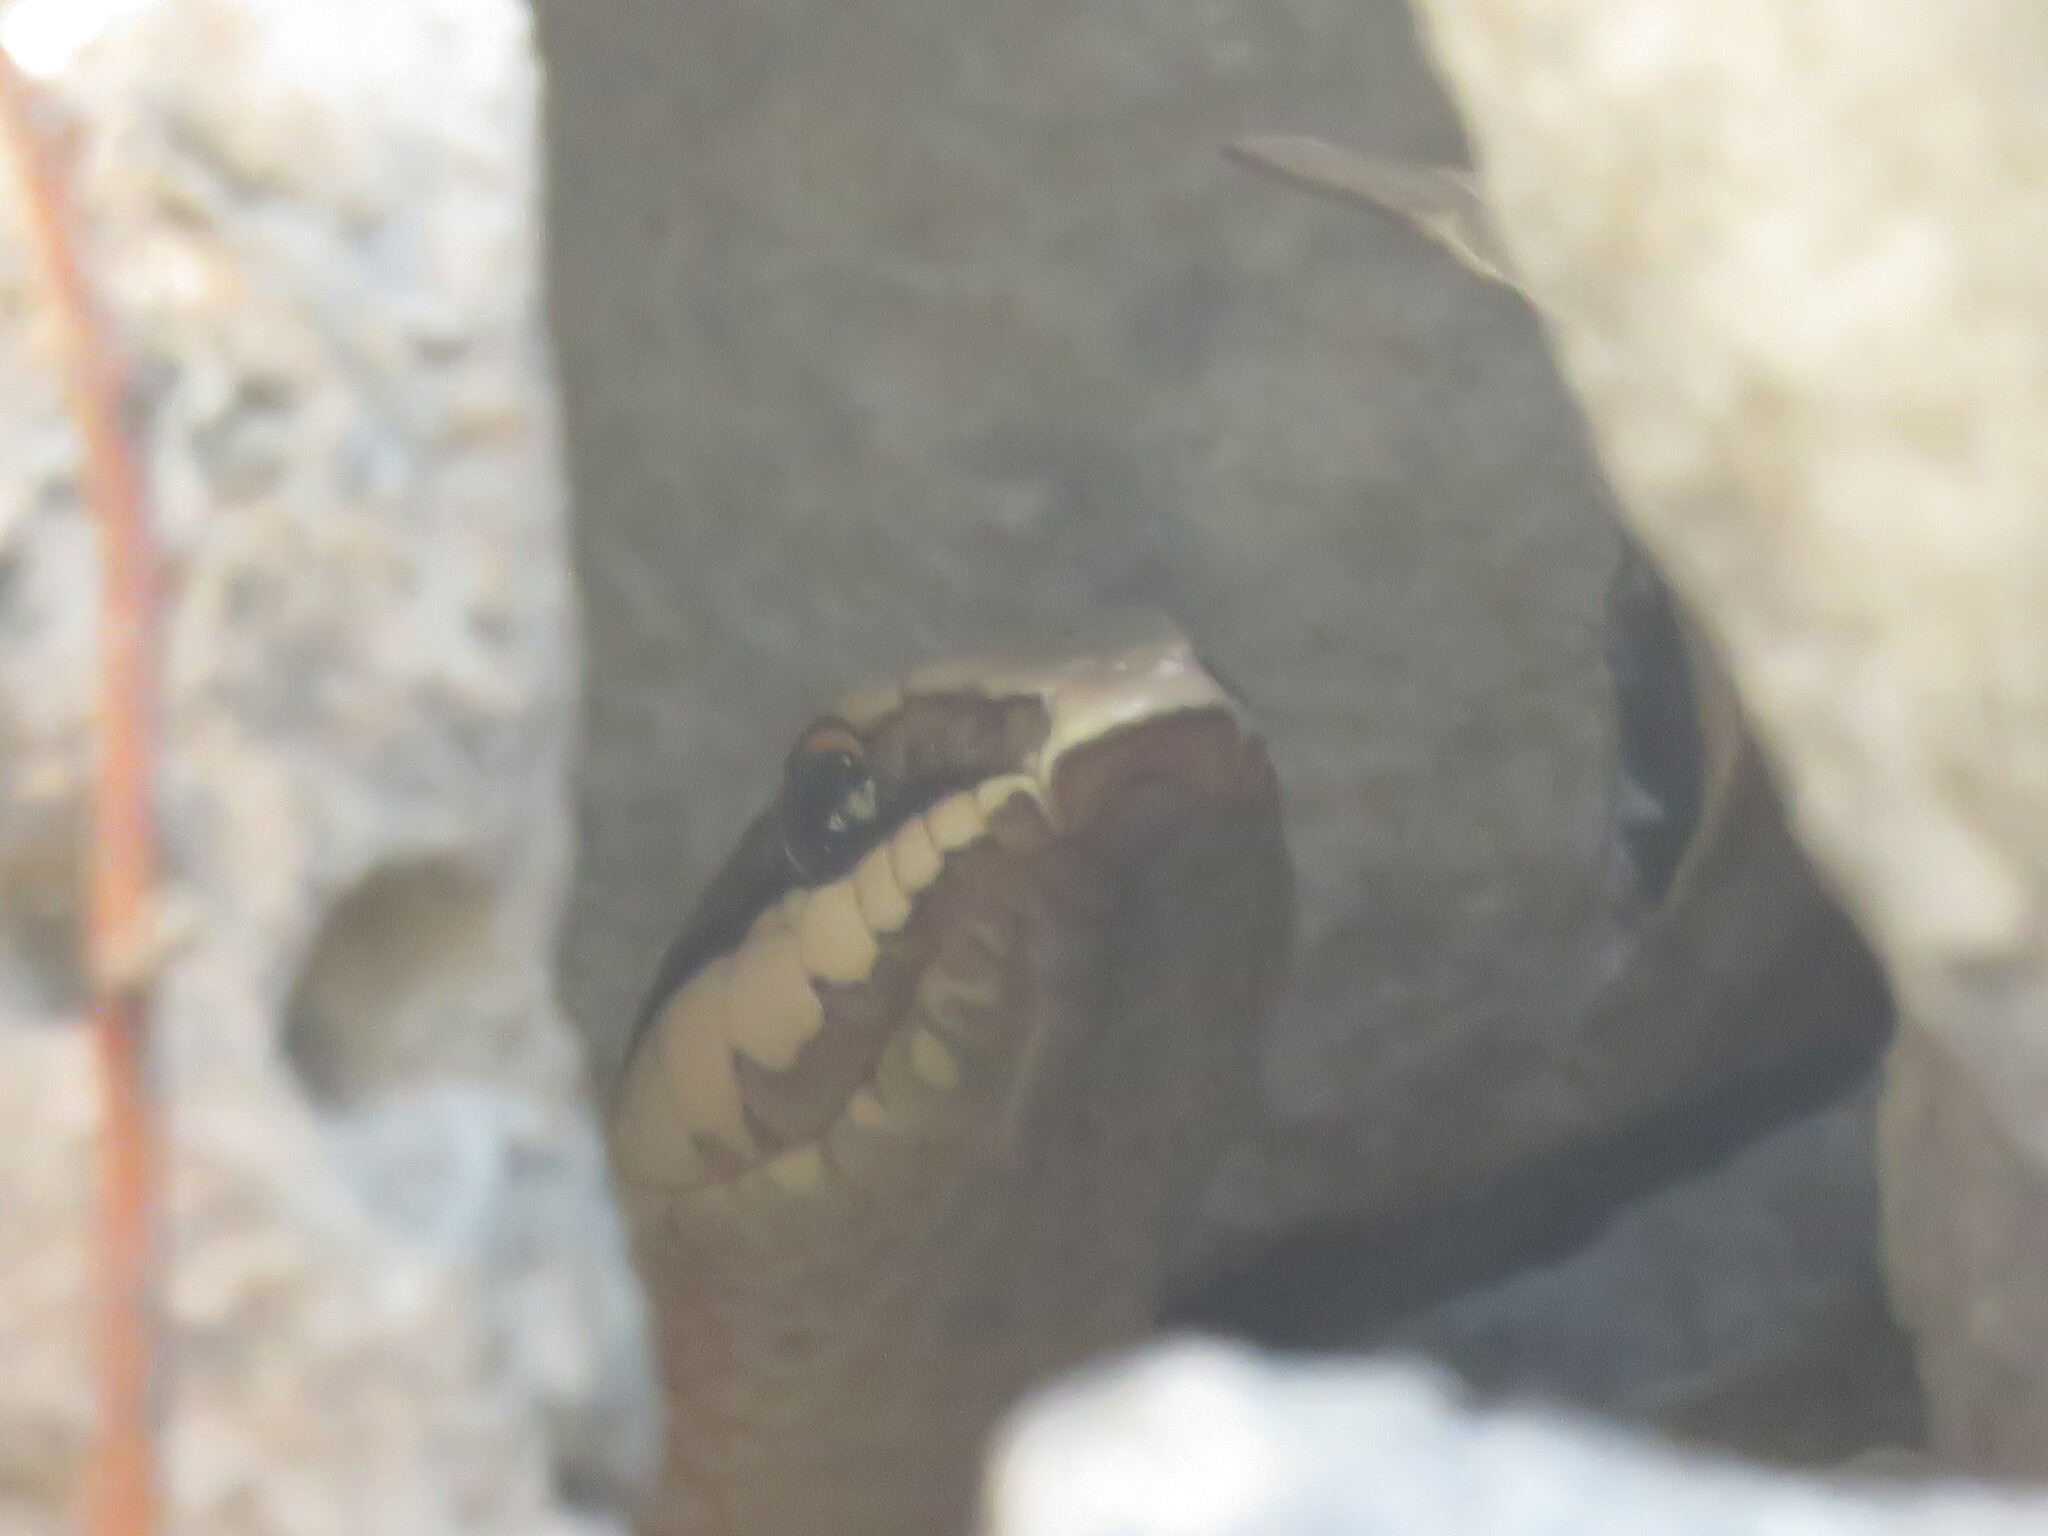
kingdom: Animalia
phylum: Chordata
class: Squamata
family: Colubridae
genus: Conophis
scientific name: Conophis lineatus
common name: Road guarder
